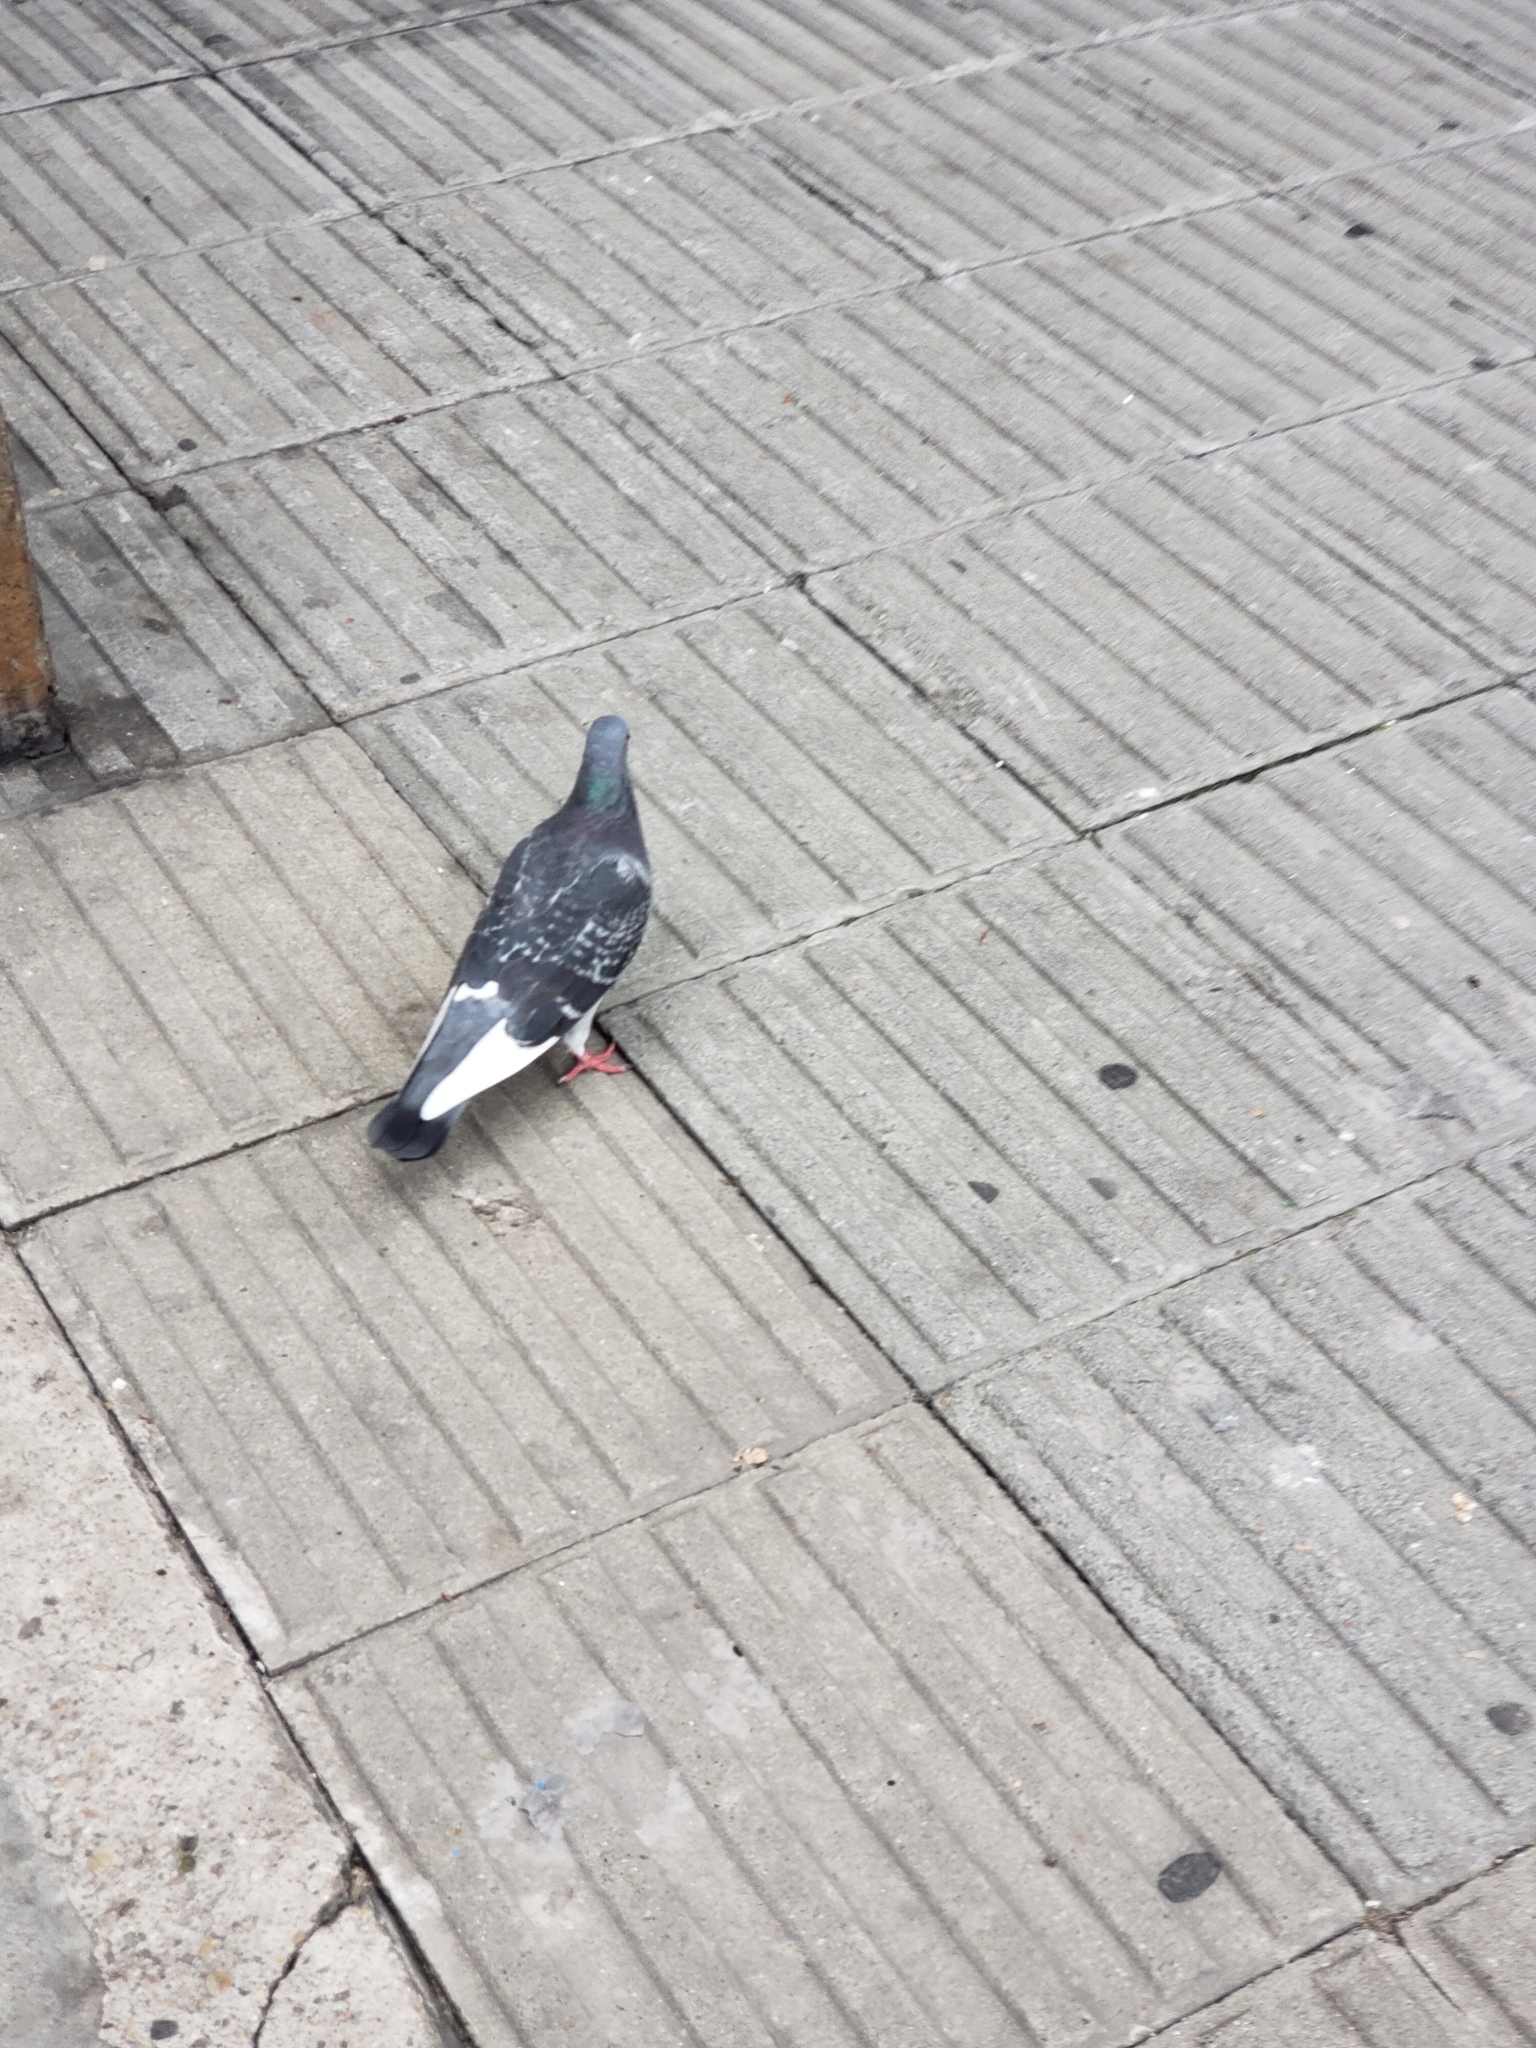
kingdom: Animalia
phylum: Chordata
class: Aves
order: Columbiformes
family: Columbidae
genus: Columba
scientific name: Columba livia
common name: Rock pigeon
